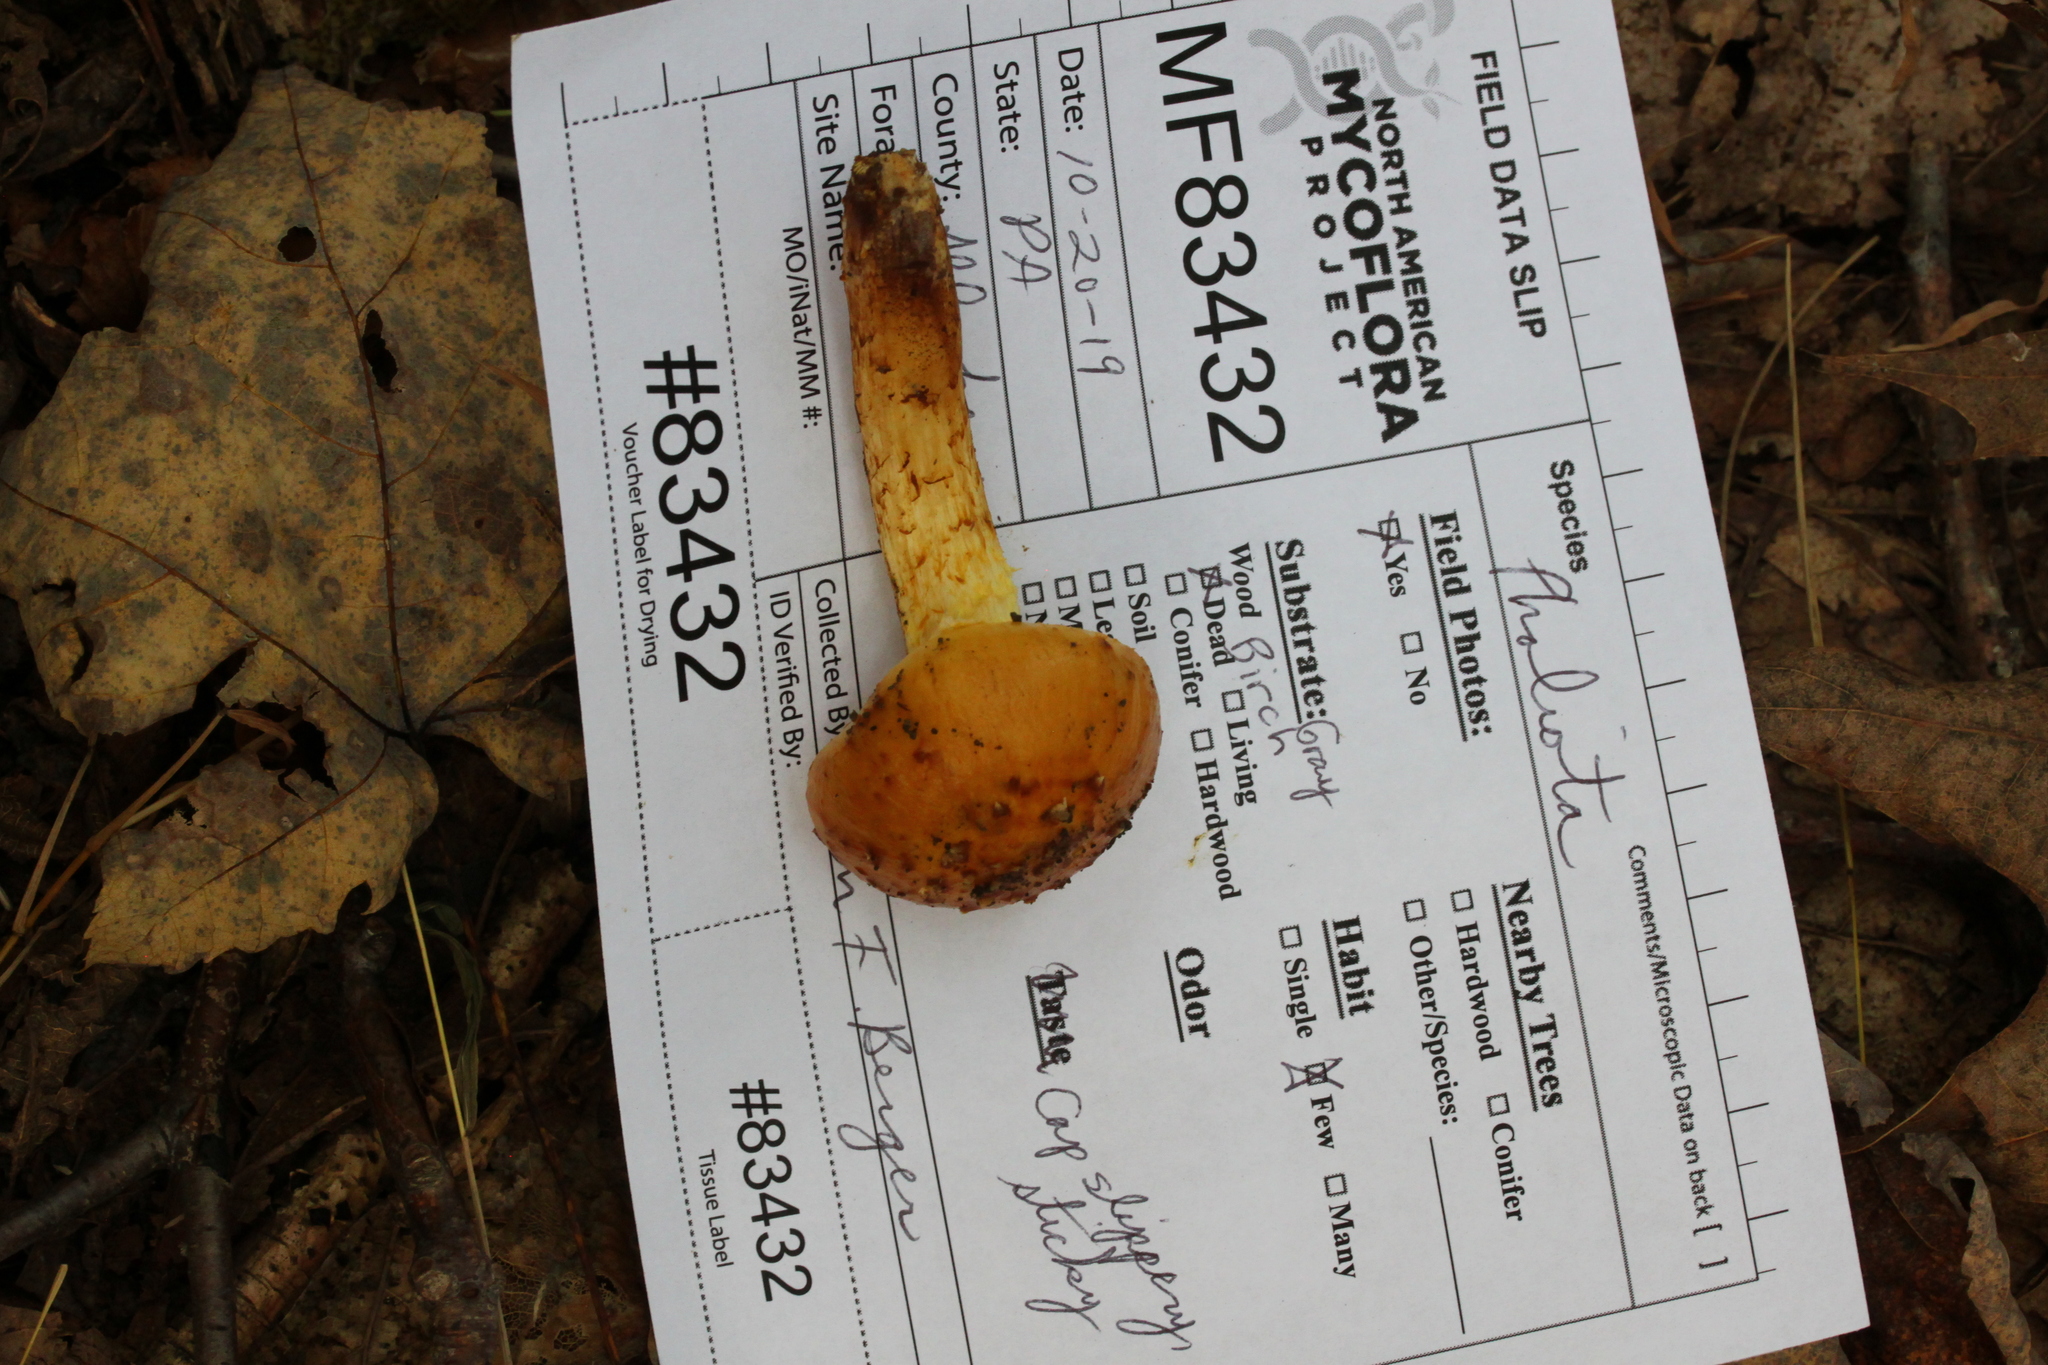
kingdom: Fungi
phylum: Basidiomycota
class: Agaricomycetes
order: Agaricales
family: Strophariaceae
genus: Pholiota
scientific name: Pholiota aurivella
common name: Golden scalycap
